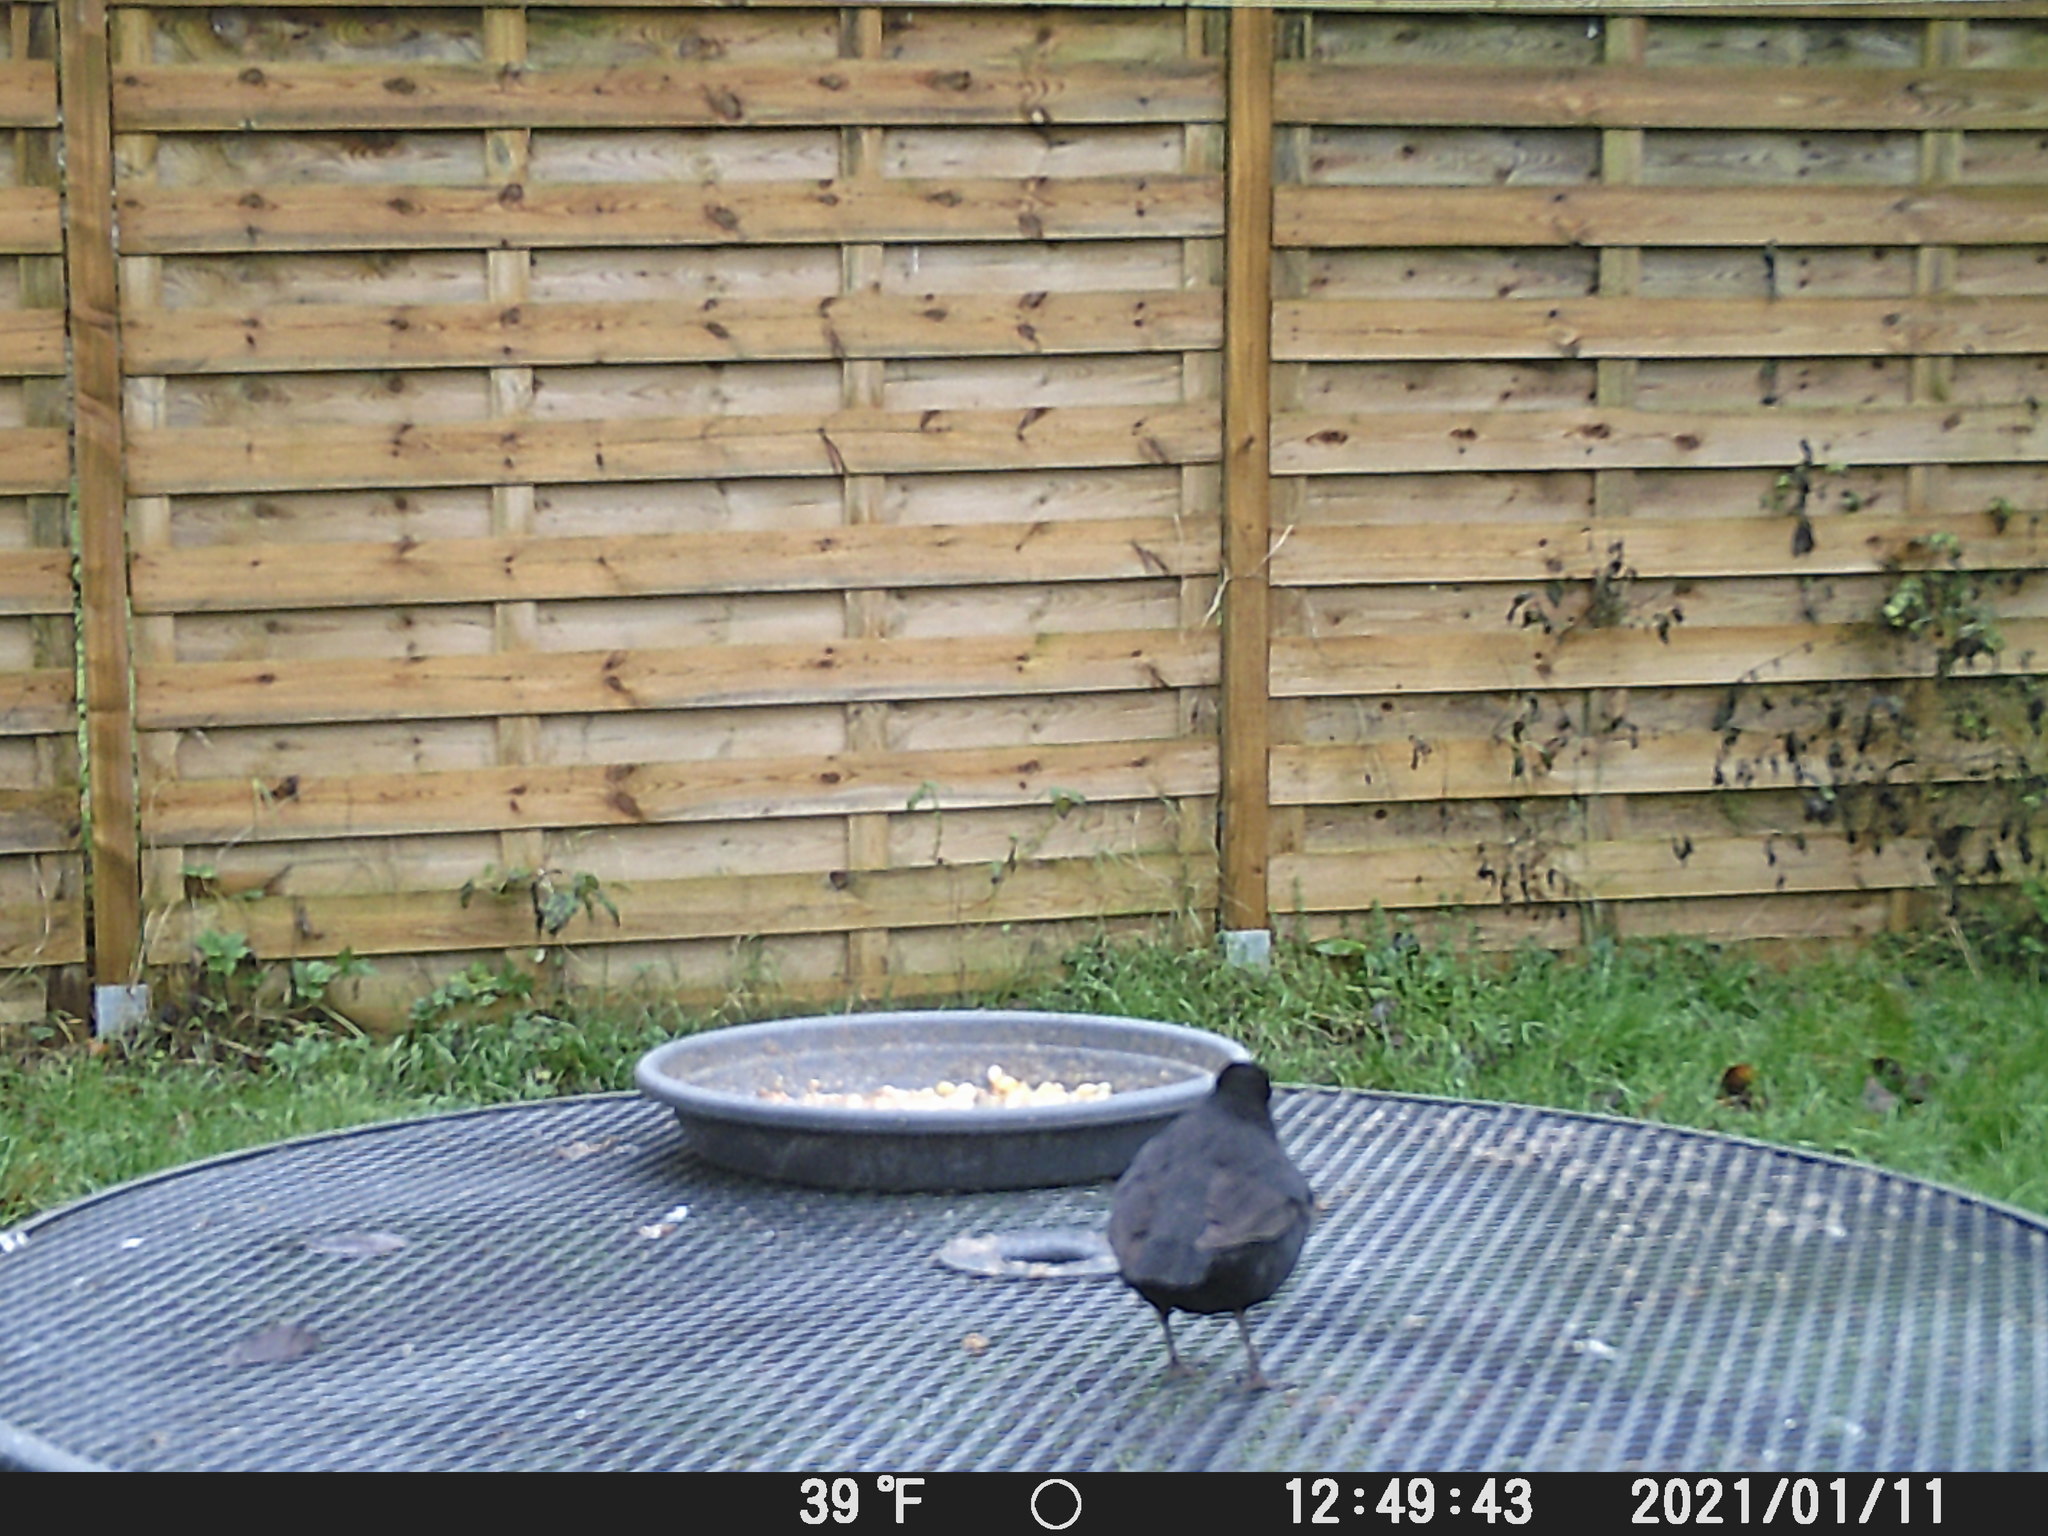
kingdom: Animalia
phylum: Chordata
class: Aves
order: Passeriformes
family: Turdidae
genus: Turdus
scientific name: Turdus merula
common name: Common blackbird
